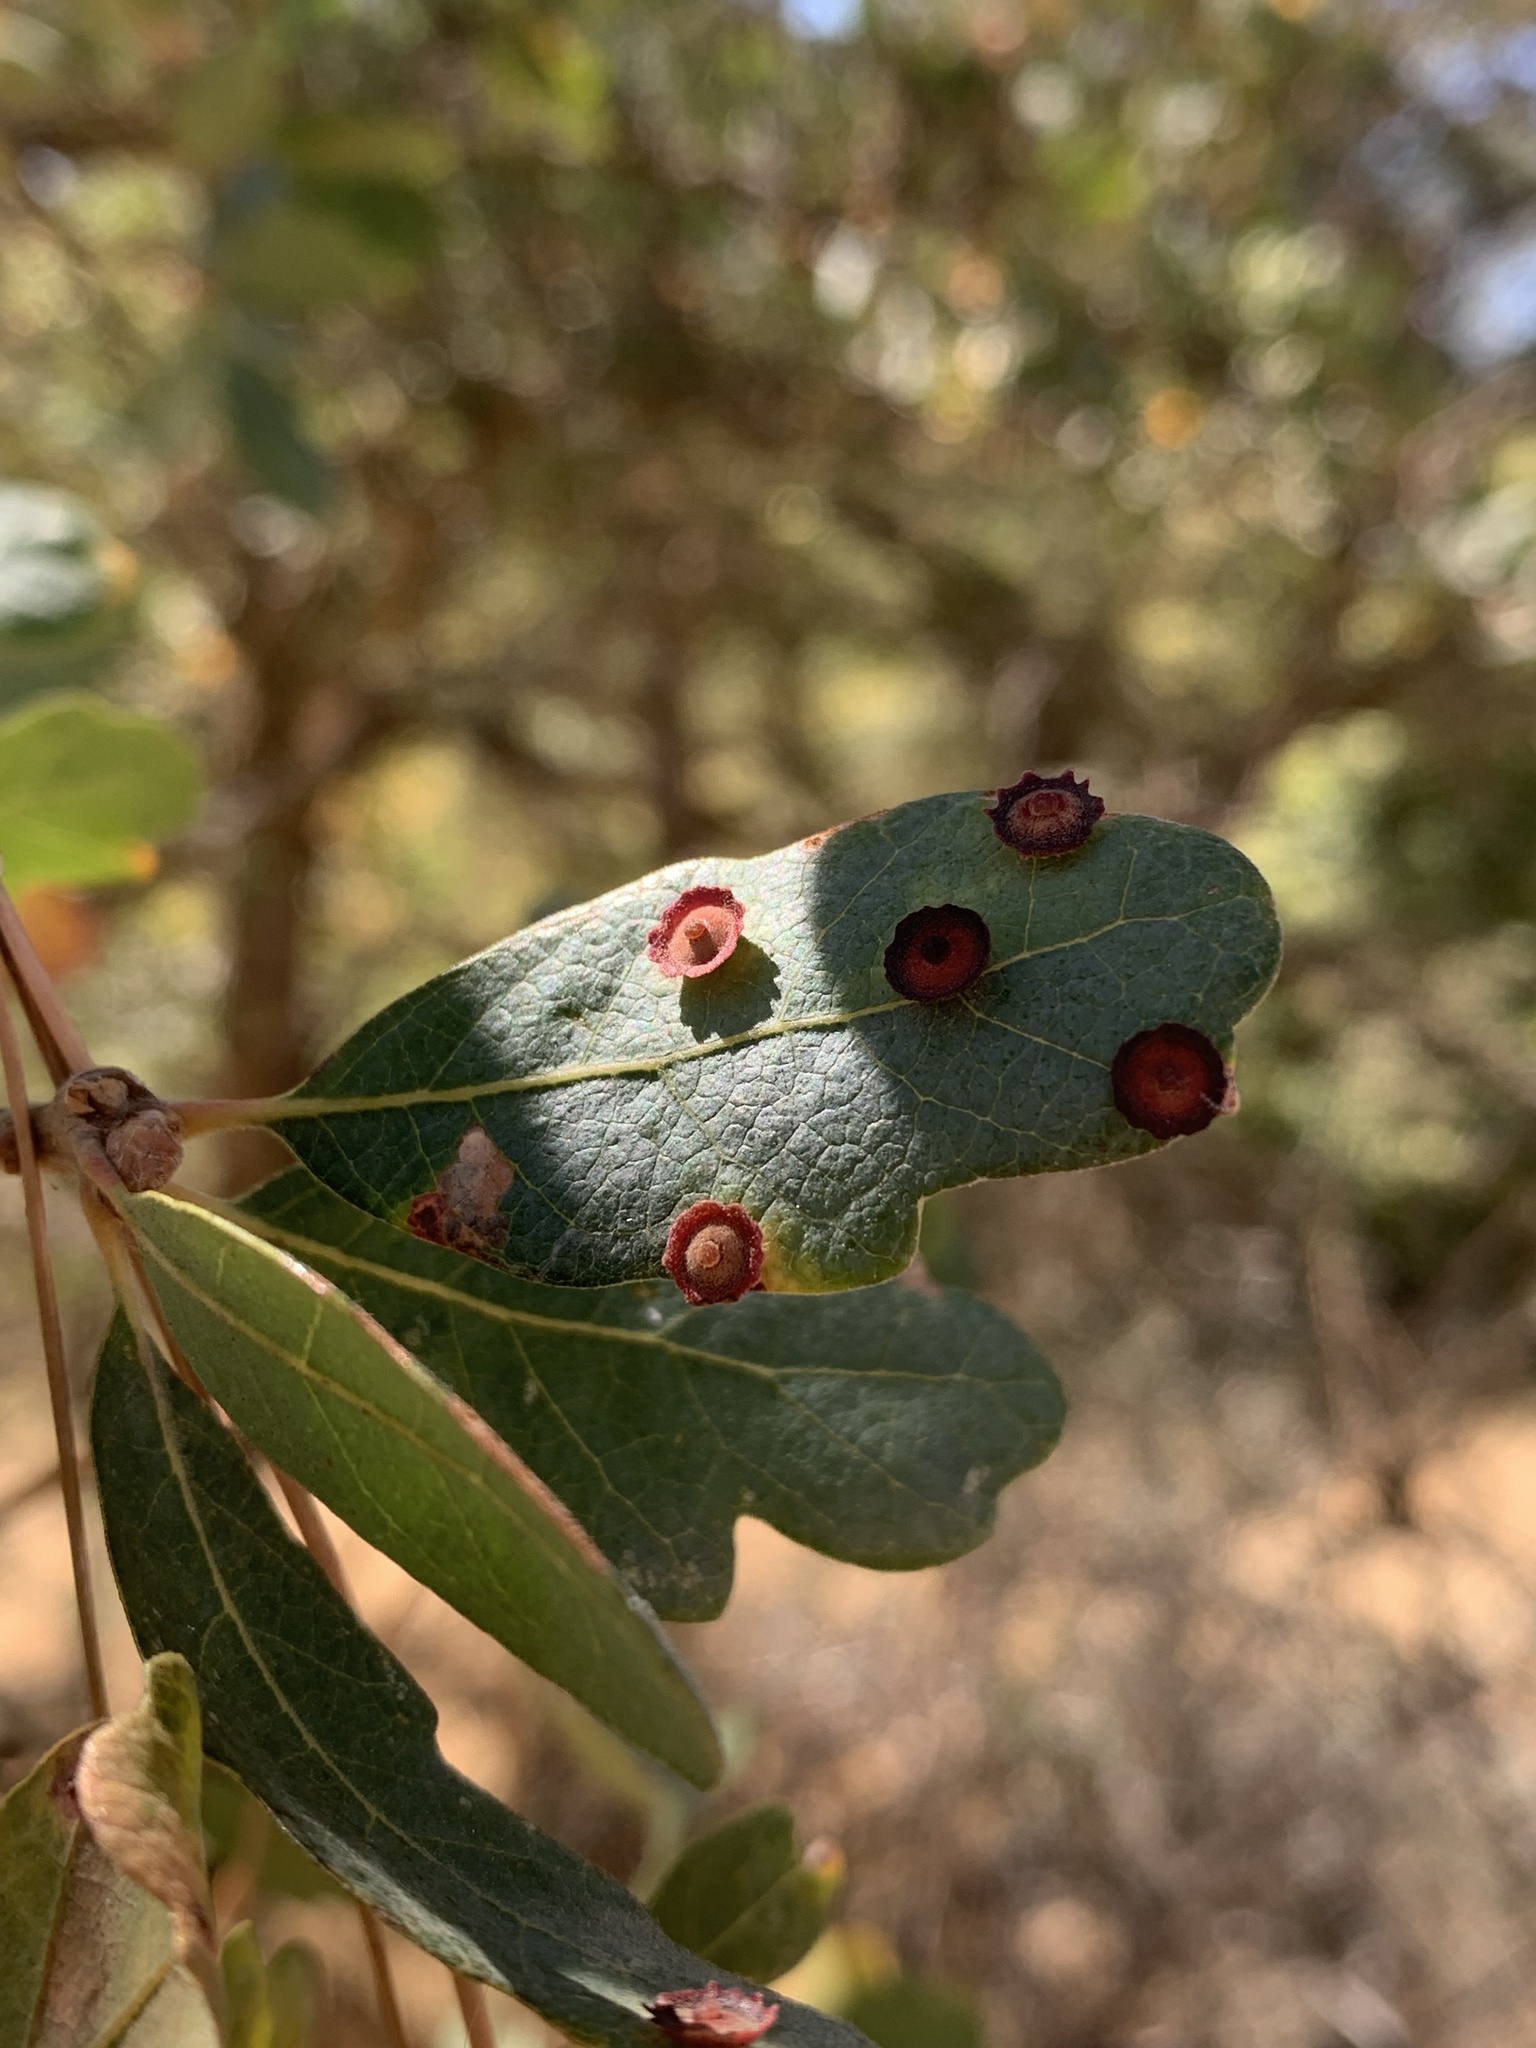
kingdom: Animalia
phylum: Arthropoda
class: Insecta
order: Hymenoptera
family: Cynipidae
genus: Andricus
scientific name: Andricus
